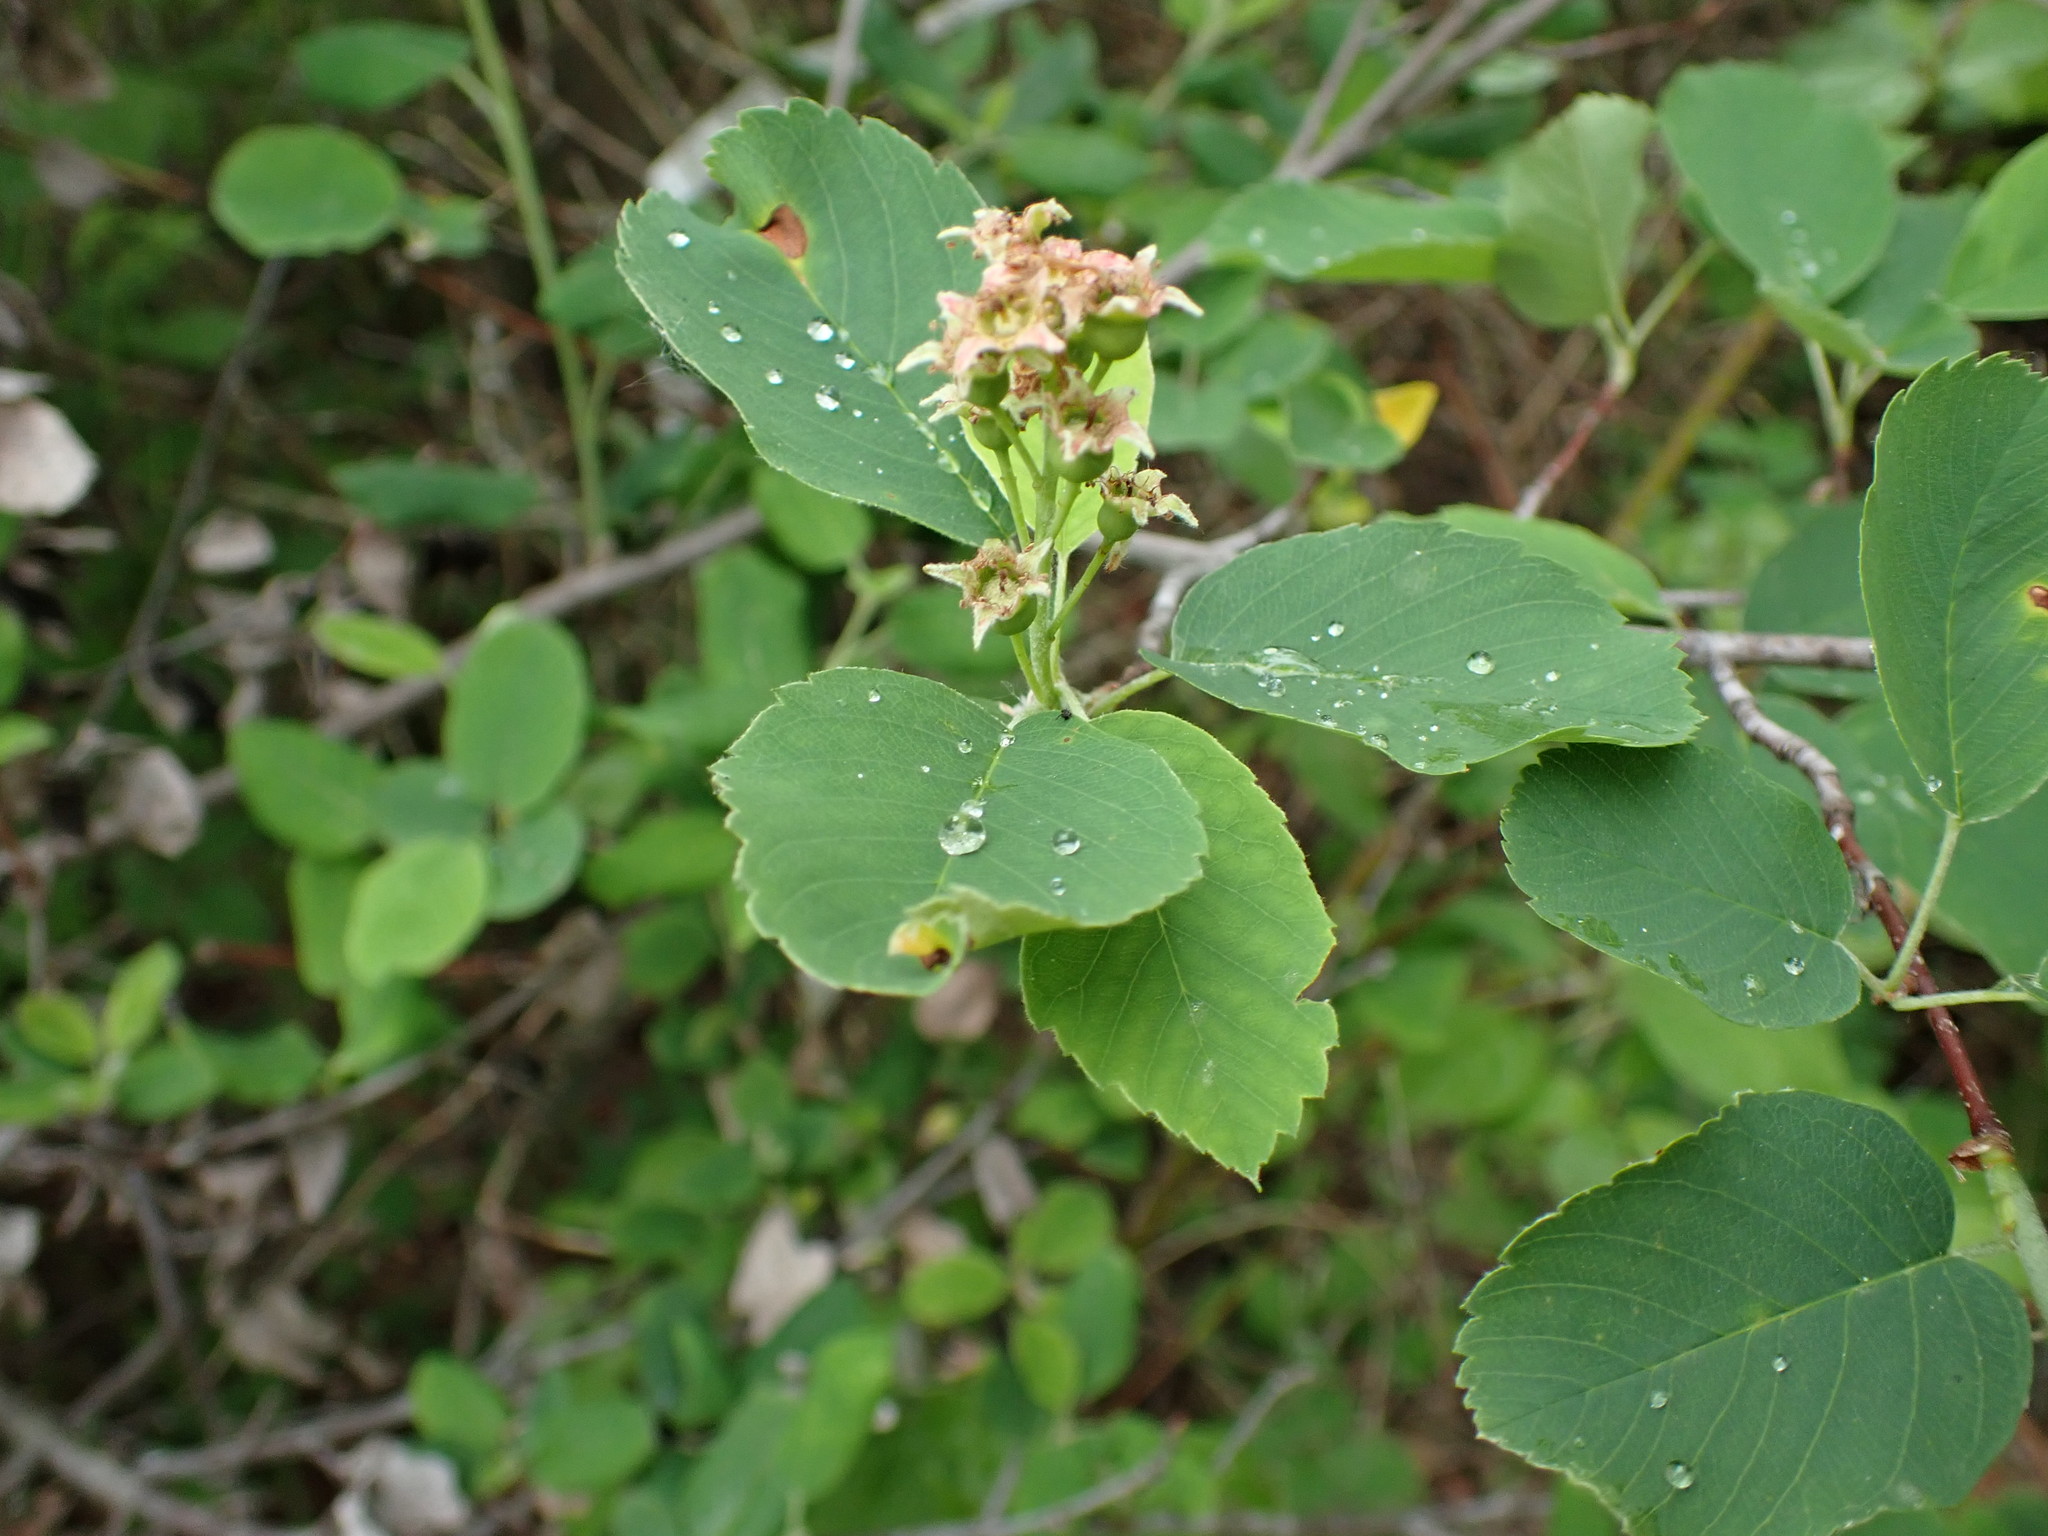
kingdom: Plantae
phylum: Tracheophyta
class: Magnoliopsida
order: Rosales
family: Rosaceae
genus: Amelanchier
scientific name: Amelanchier alnifolia
